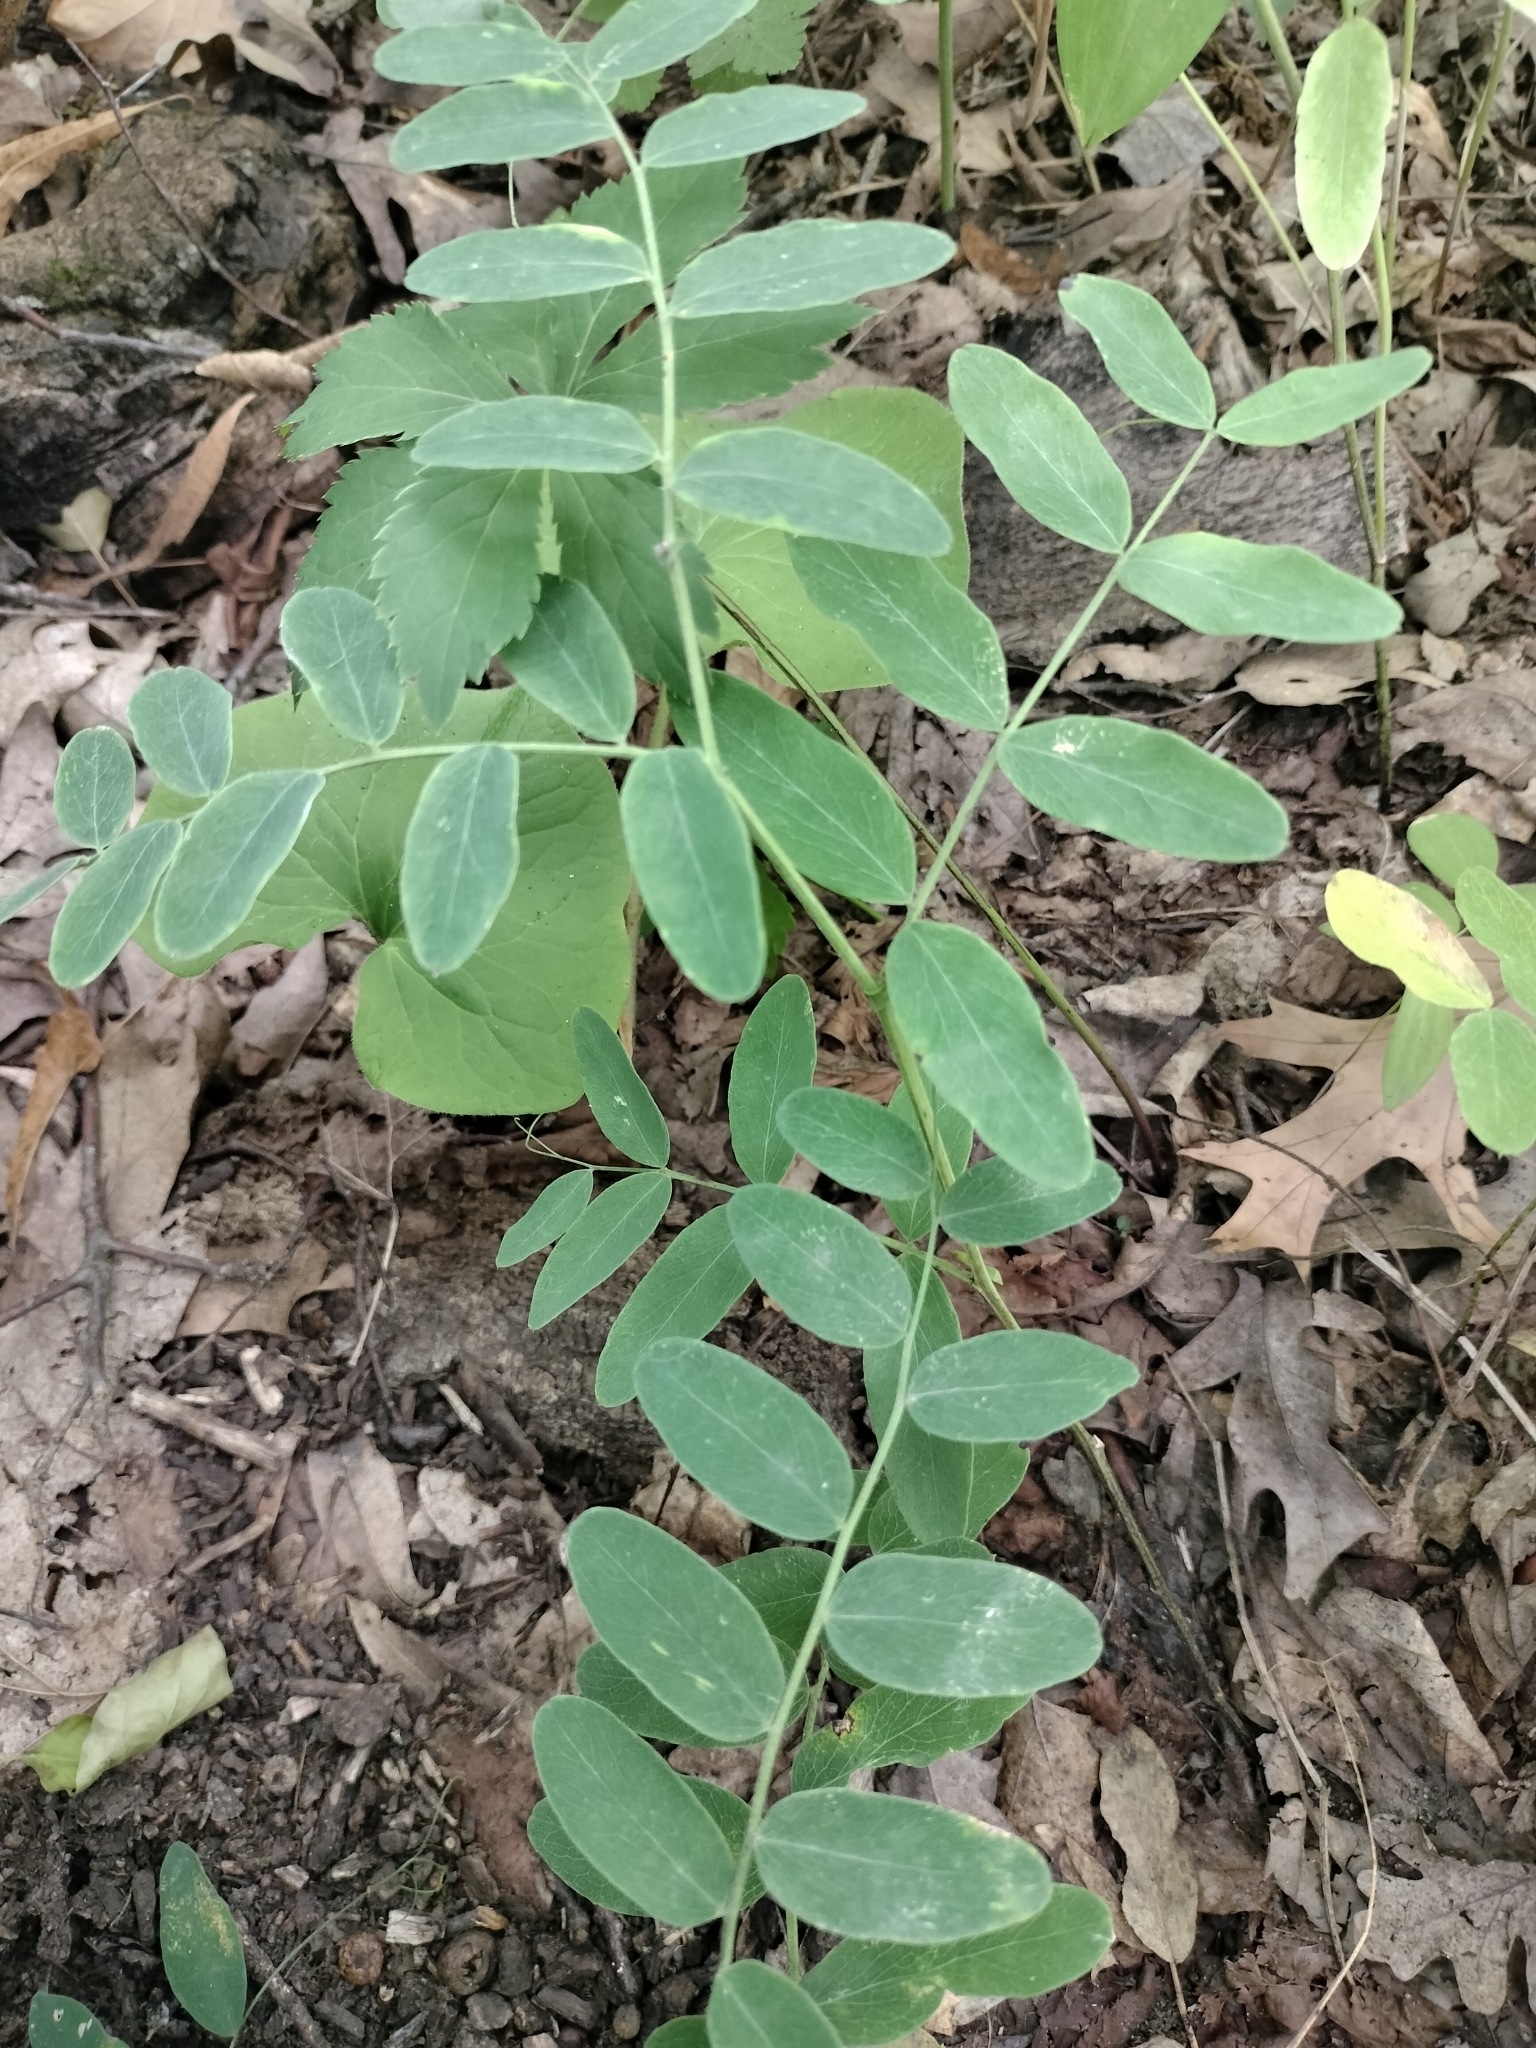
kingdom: Plantae
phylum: Tracheophyta
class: Magnoliopsida
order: Fabales
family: Fabaceae
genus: Lathyrus
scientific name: Lathyrus venosus
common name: Forest-pea
